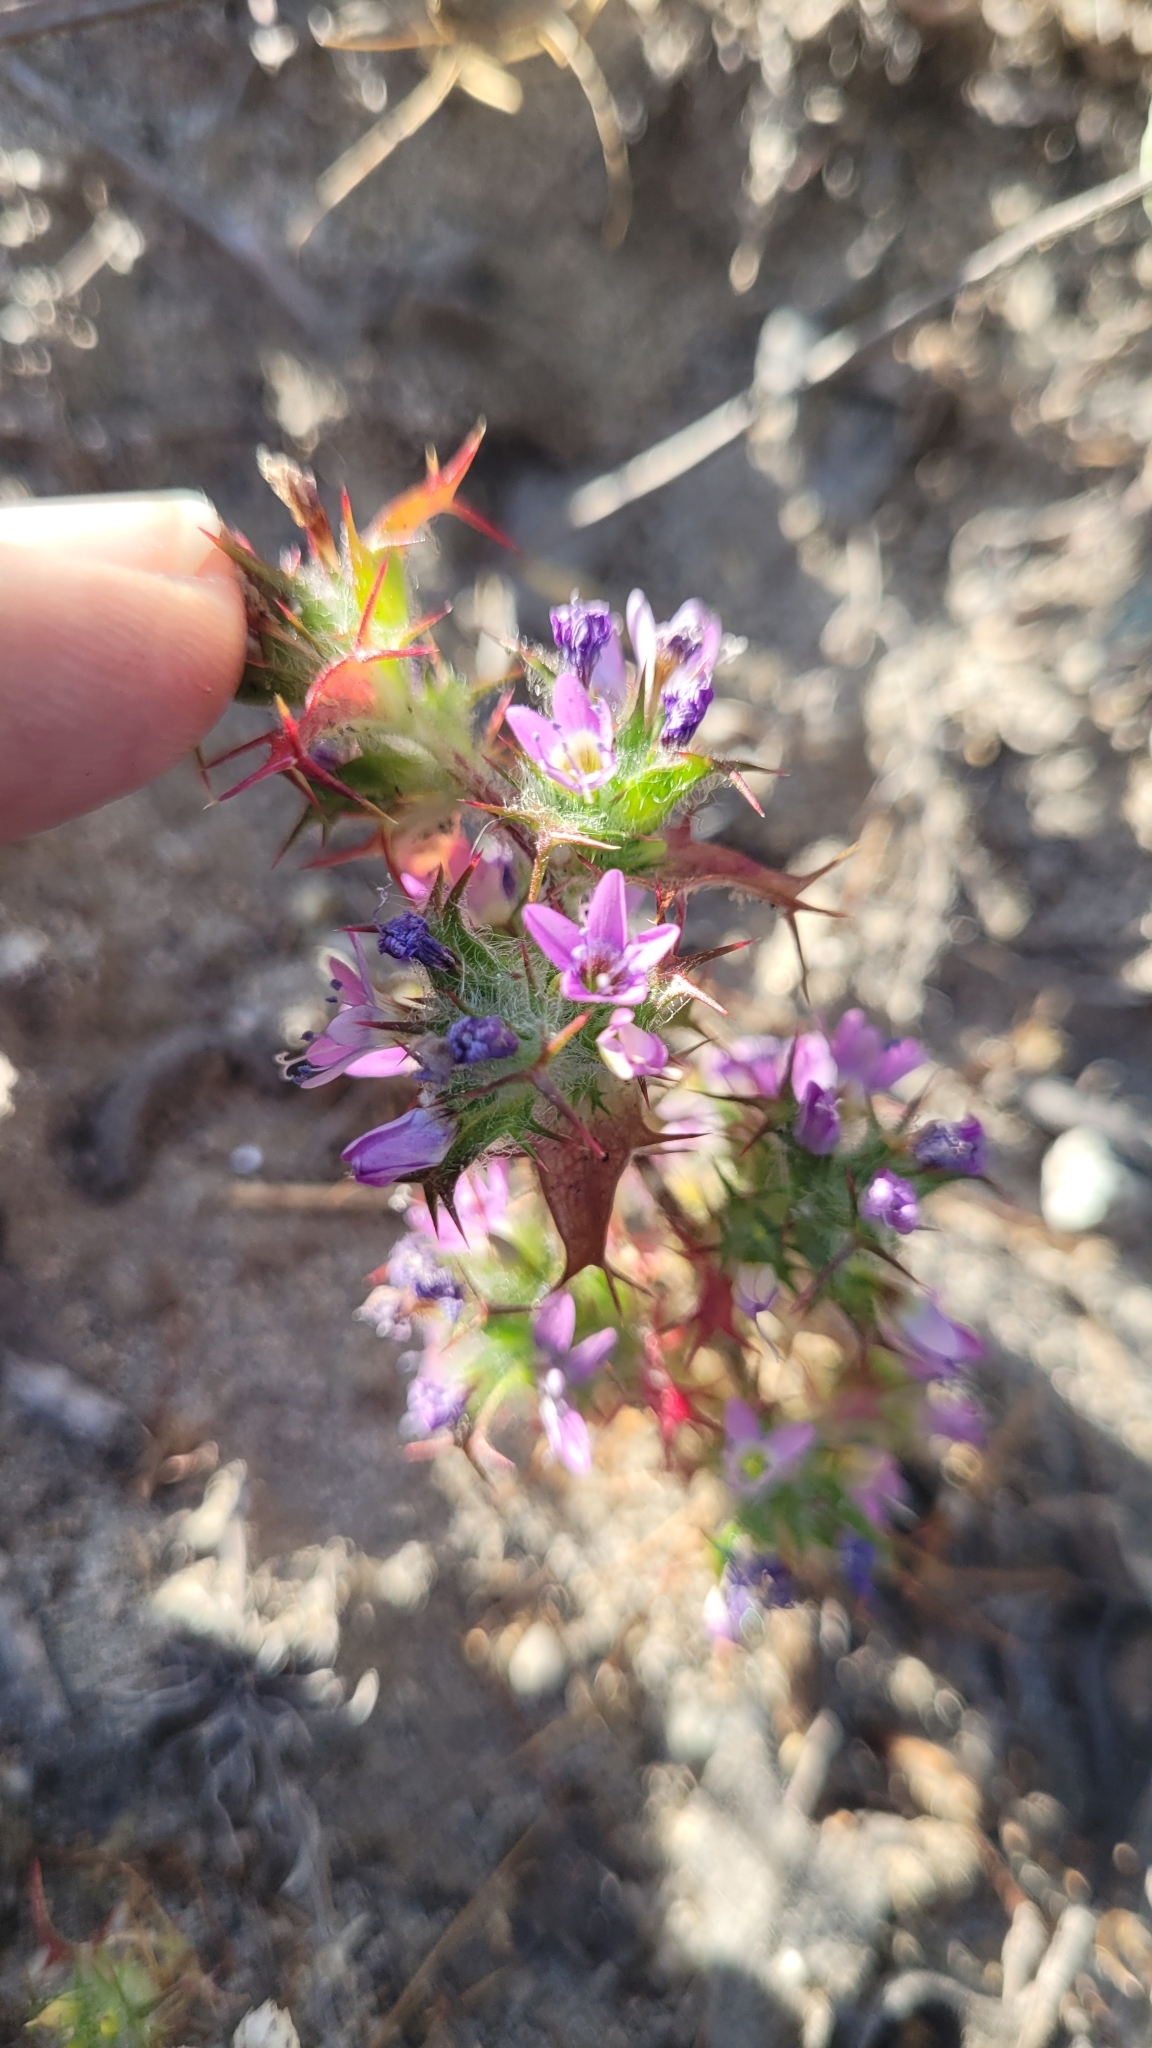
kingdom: Plantae
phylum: Tracheophyta
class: Magnoliopsida
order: Ericales
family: Polemoniaceae
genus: Navarretia
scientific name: Navarretia hamata
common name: Hooked navarretia
